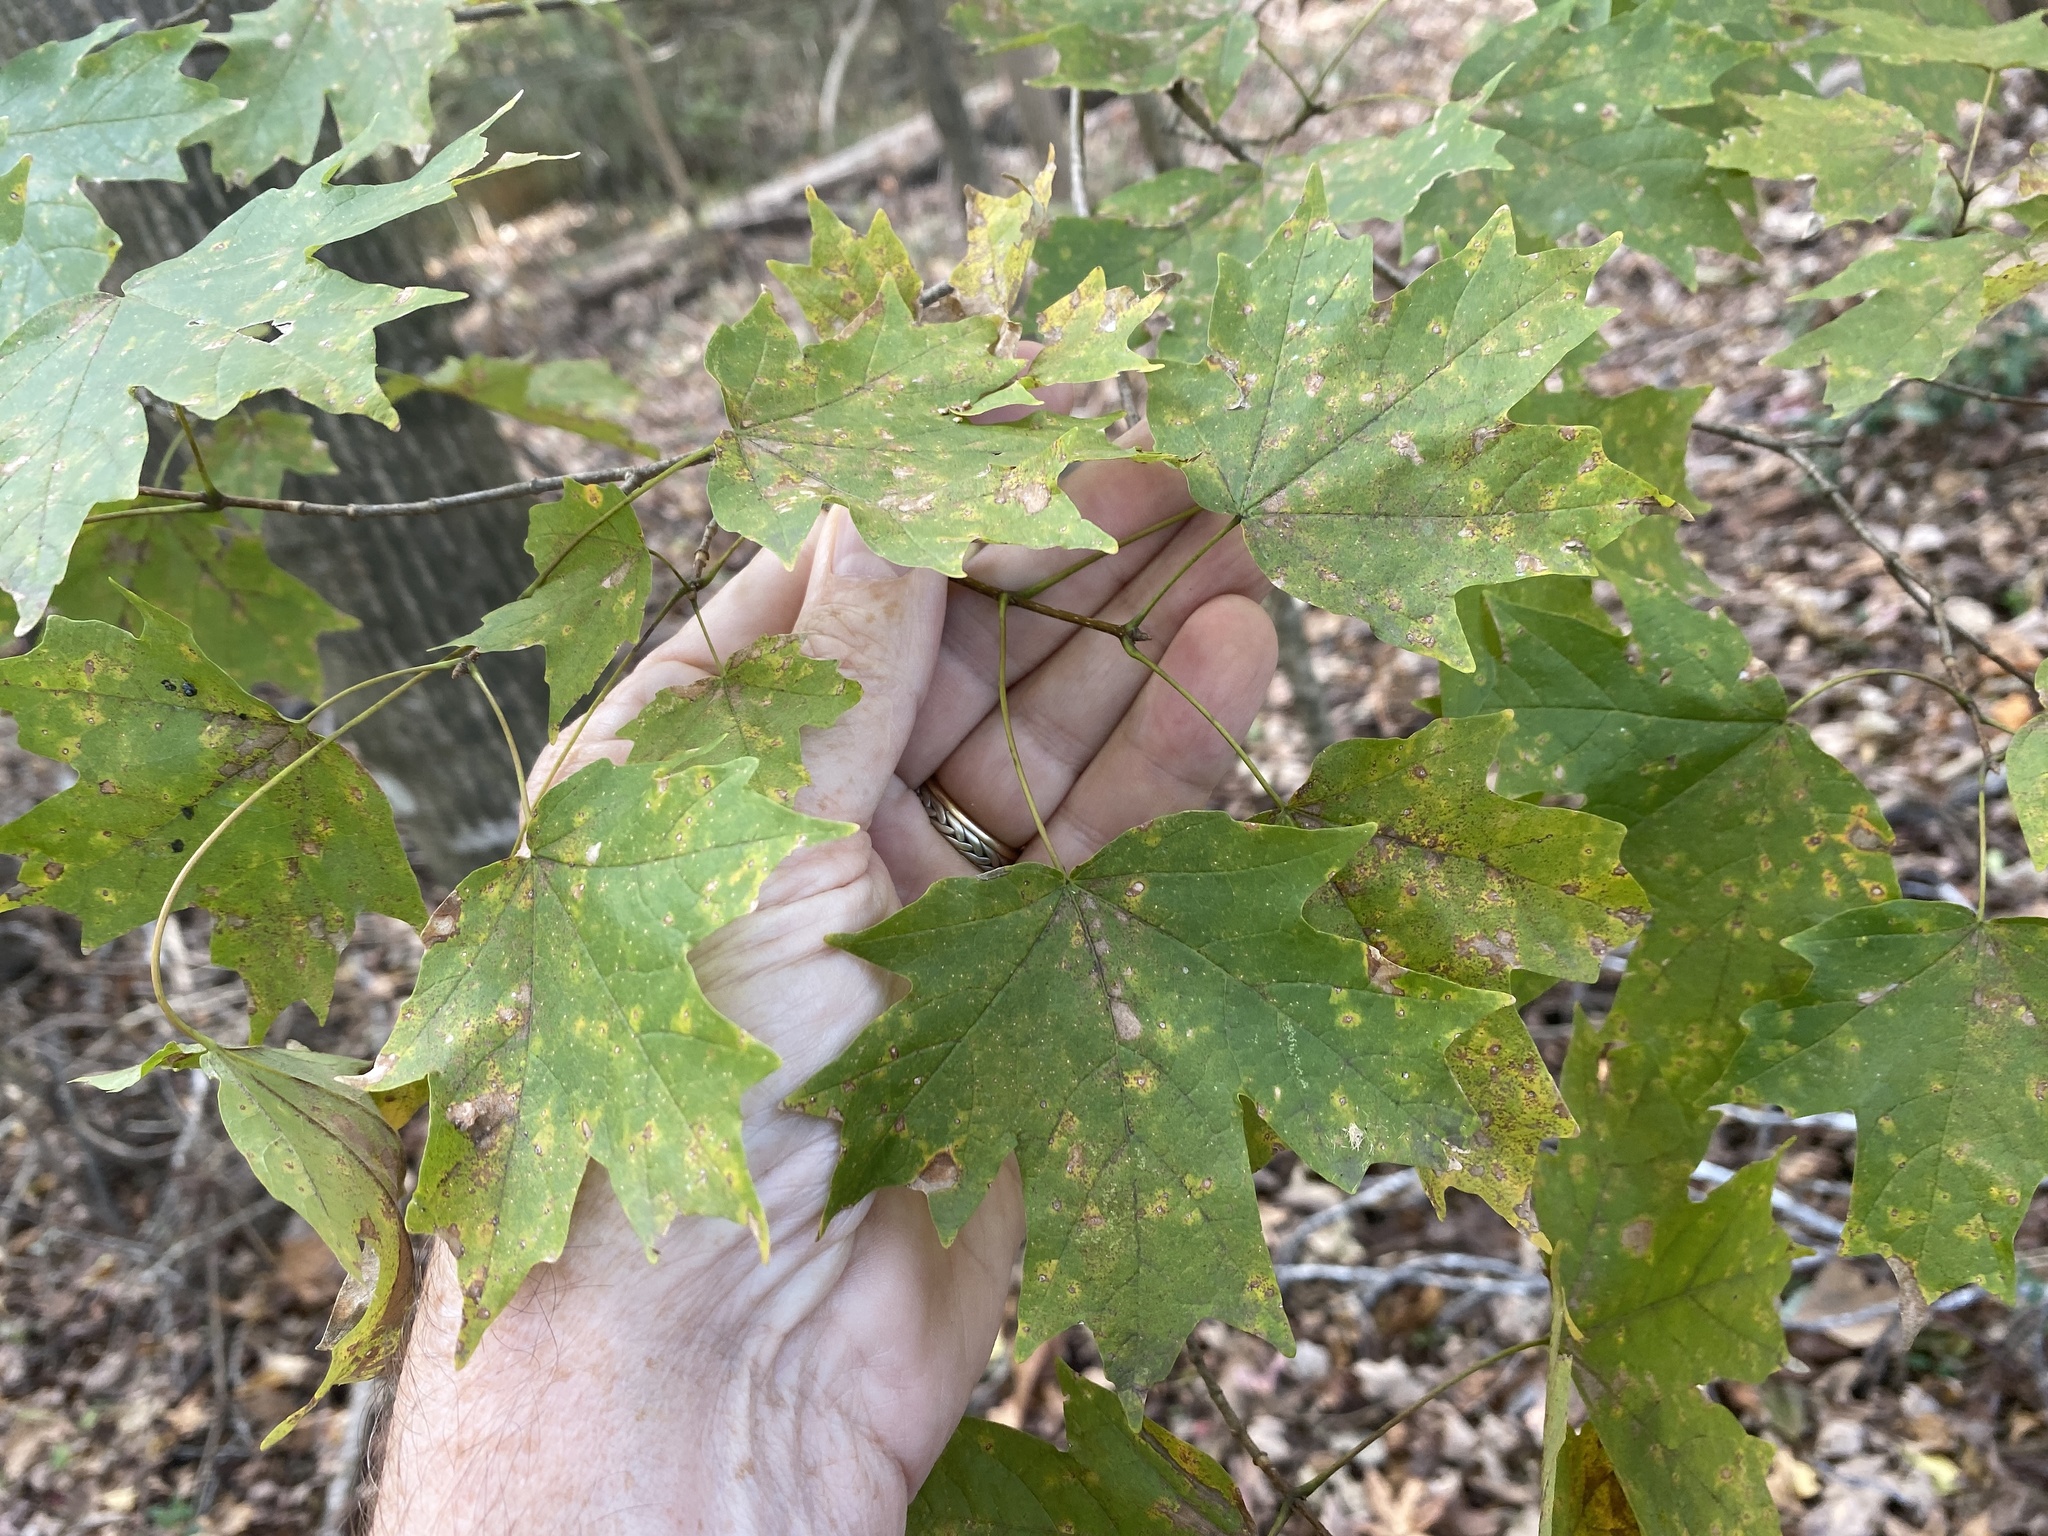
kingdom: Plantae
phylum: Tracheophyta
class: Magnoliopsida
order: Sapindales
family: Sapindaceae
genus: Acer
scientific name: Acer floridanum
